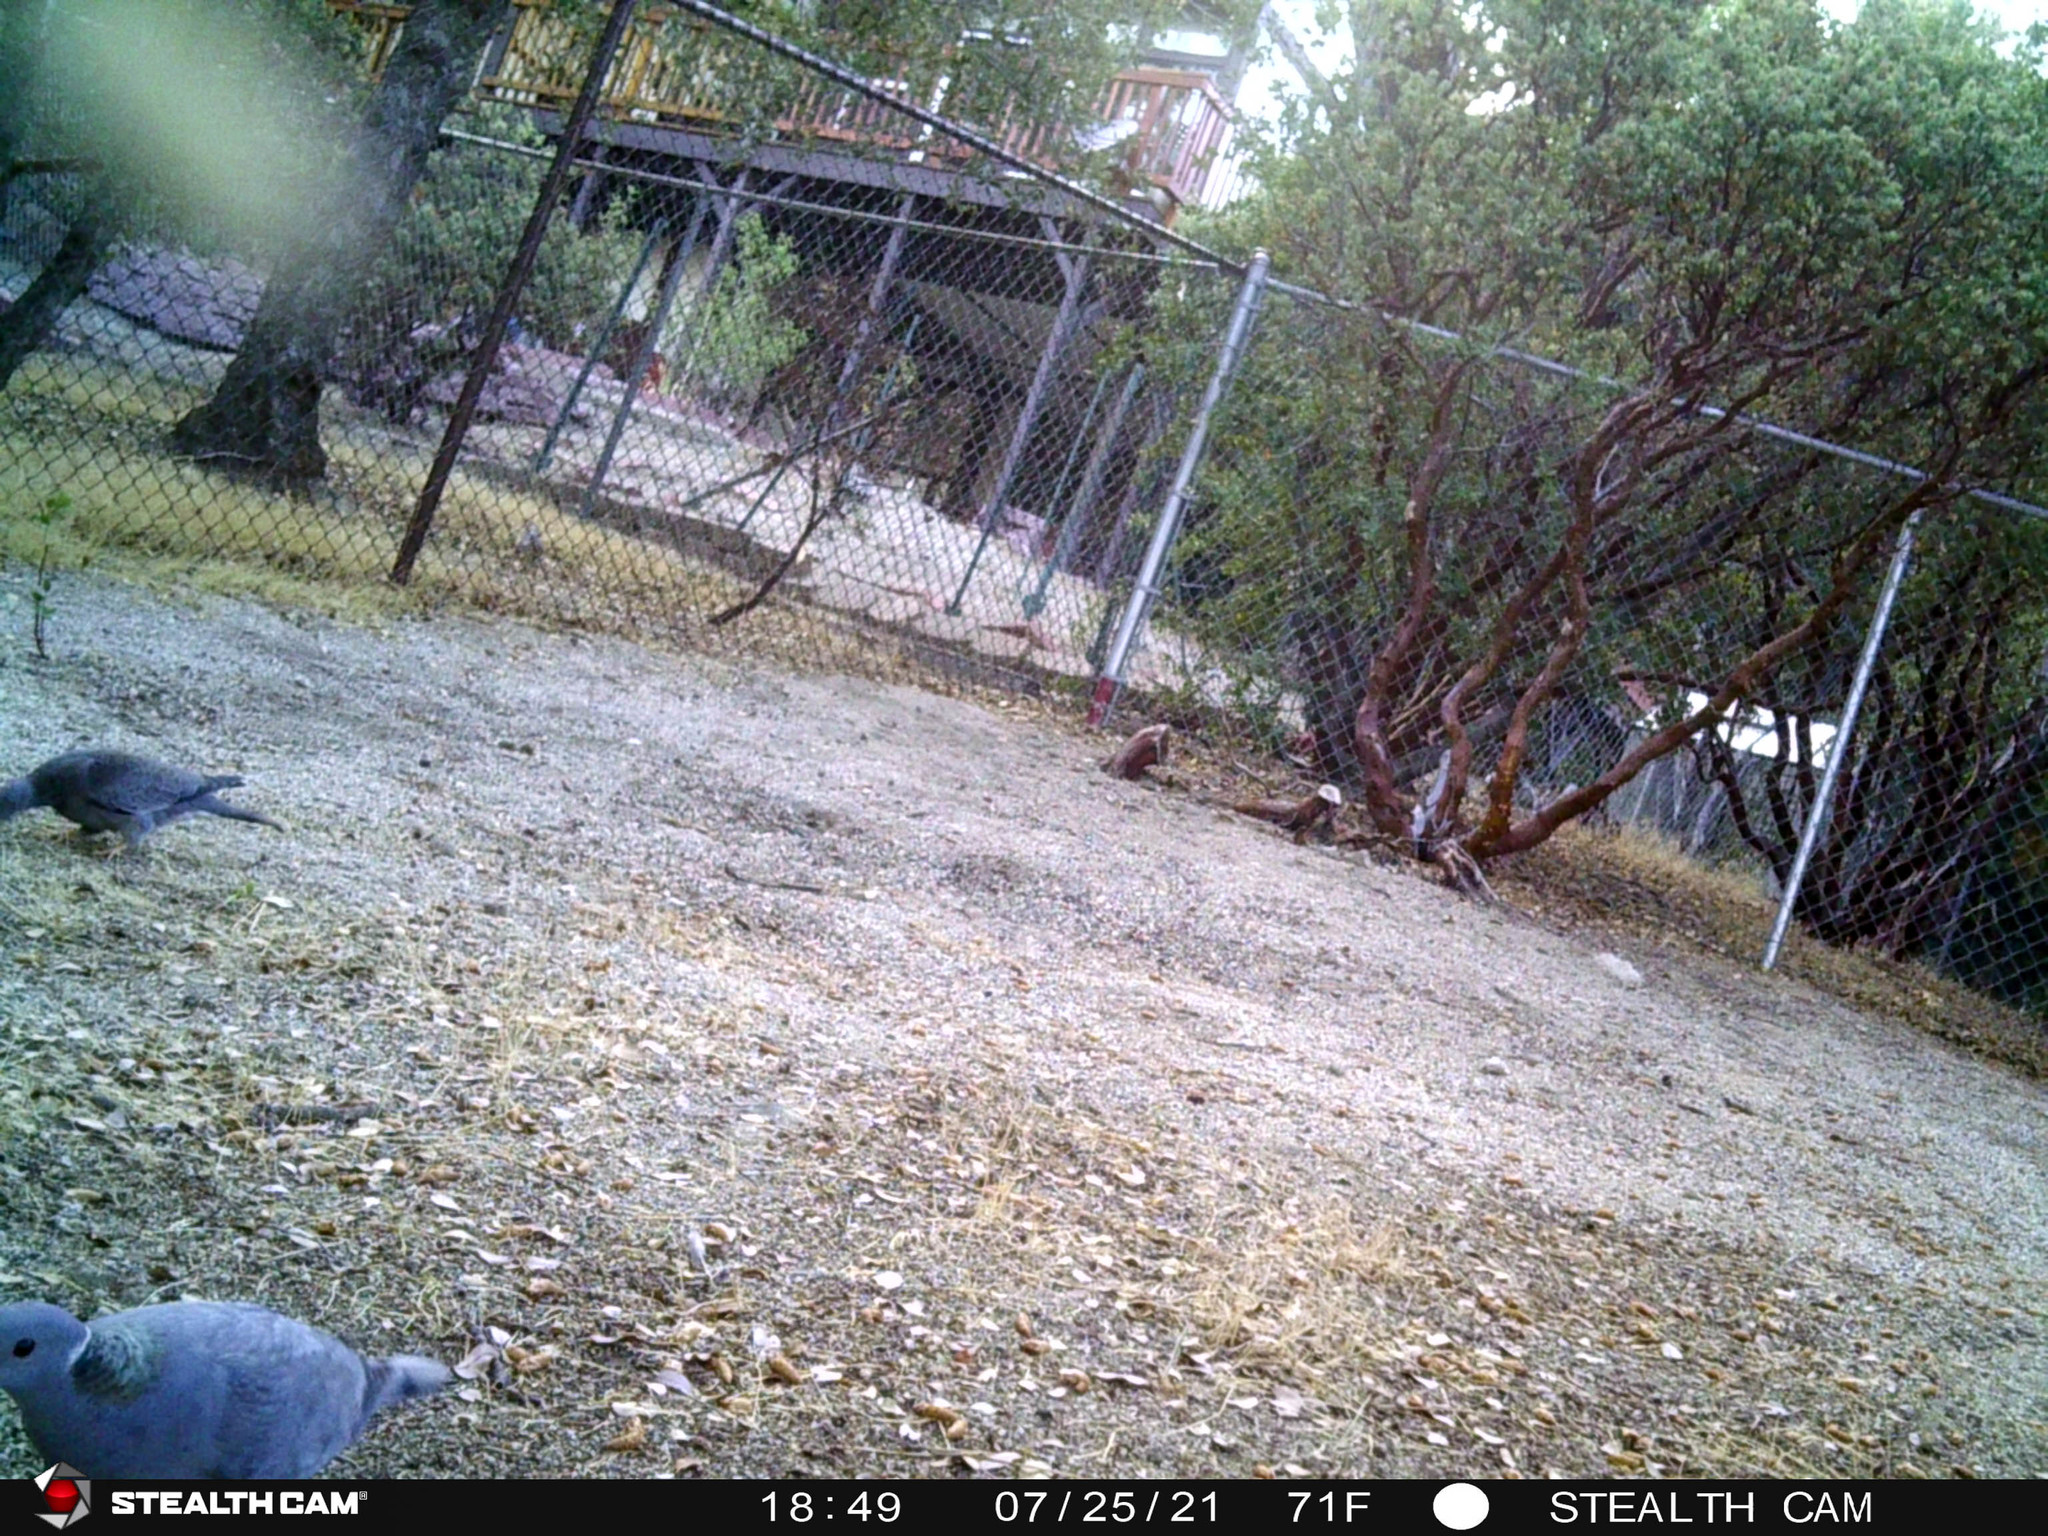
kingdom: Animalia
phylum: Chordata
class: Aves
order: Columbiformes
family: Columbidae
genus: Patagioenas
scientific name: Patagioenas fasciata
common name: Band-tailed pigeon
